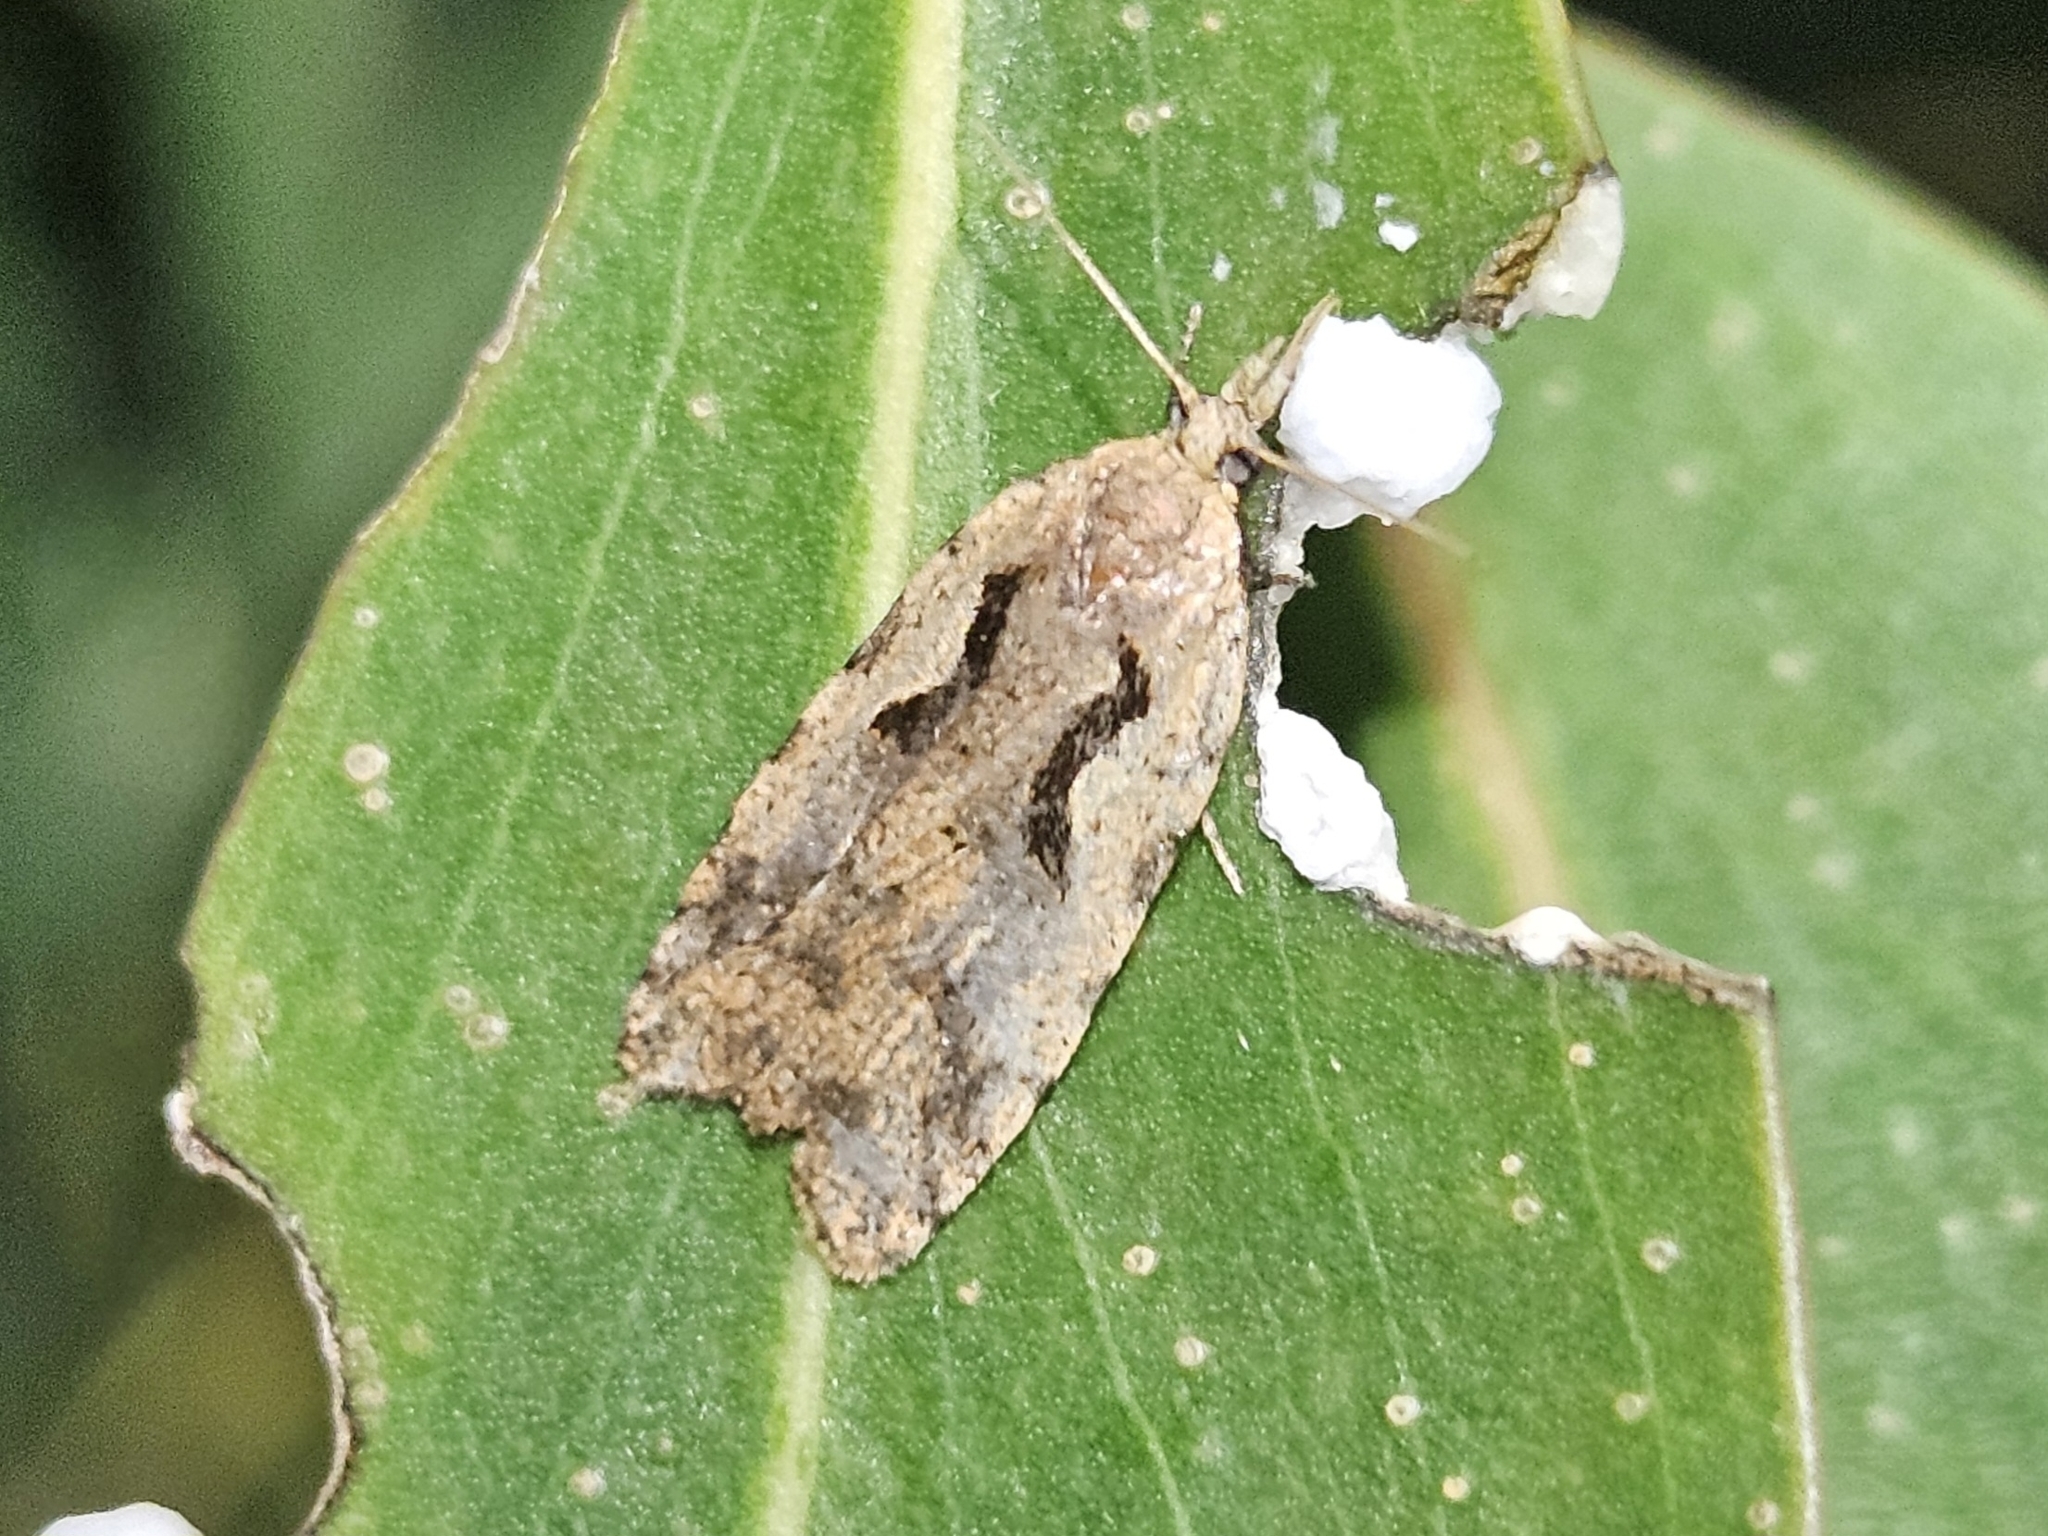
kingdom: Animalia
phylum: Arthropoda
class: Insecta
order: Lepidoptera
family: Tortricidae
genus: Cnephasia
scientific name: Cnephasia jactatana
